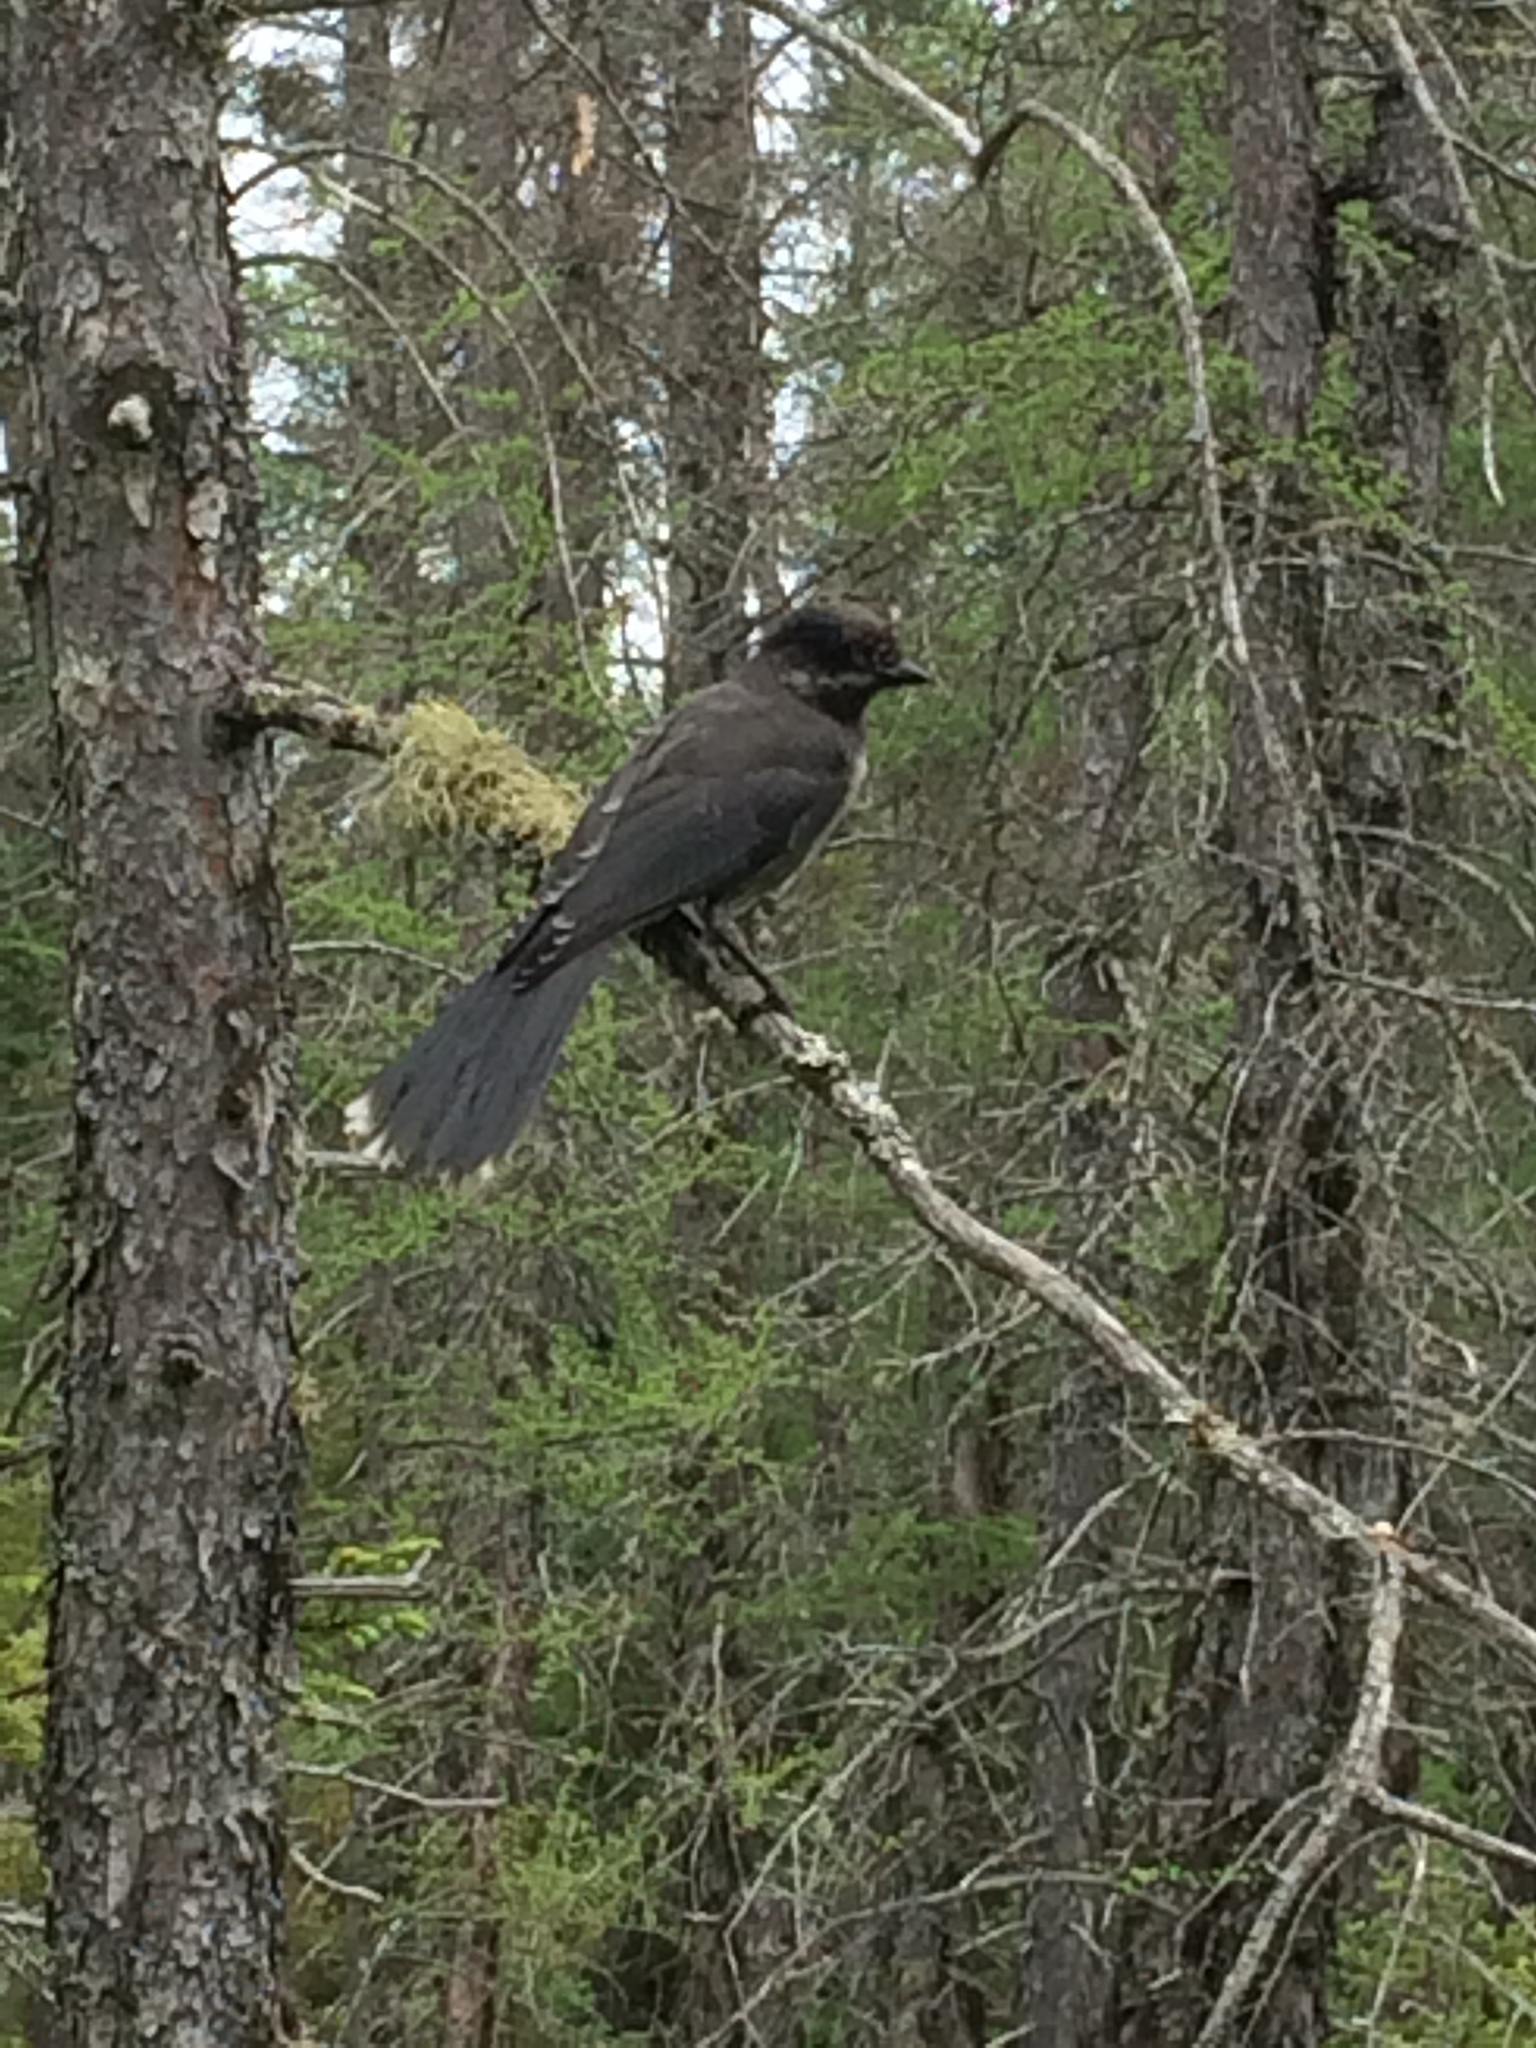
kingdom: Animalia
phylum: Chordata
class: Aves
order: Passeriformes
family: Corvidae
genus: Perisoreus
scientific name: Perisoreus canadensis
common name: Gray jay
